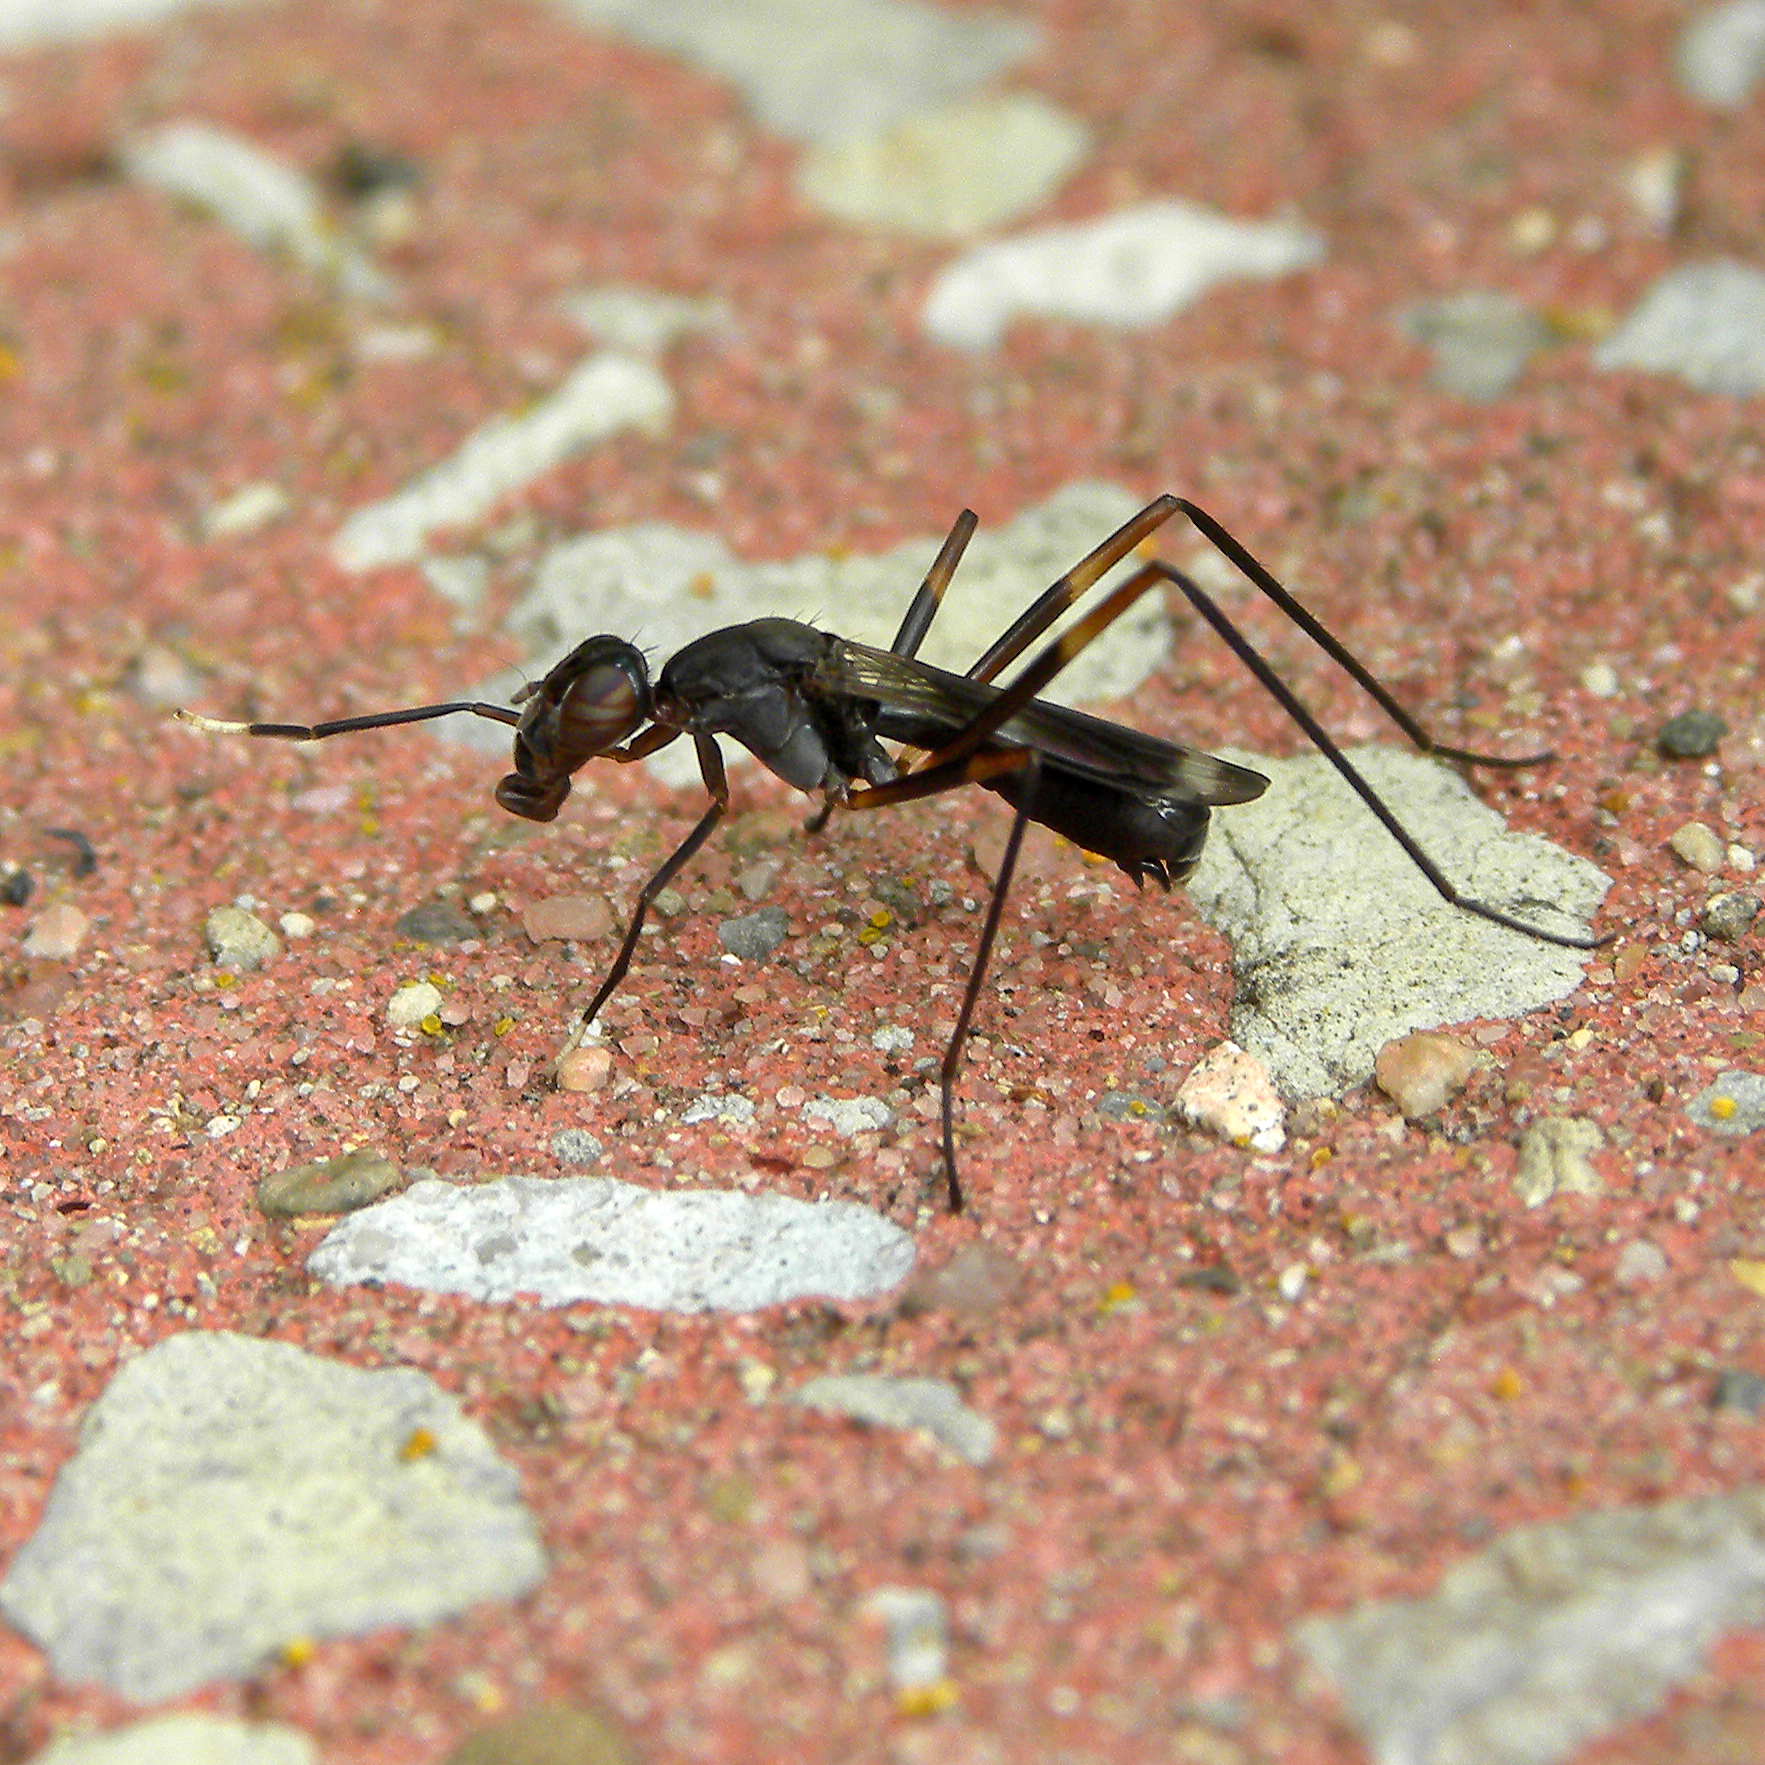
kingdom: Animalia
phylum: Arthropoda
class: Insecta
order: Diptera
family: Micropezidae
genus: Taeniaptera
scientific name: Taeniaptera trivittata
